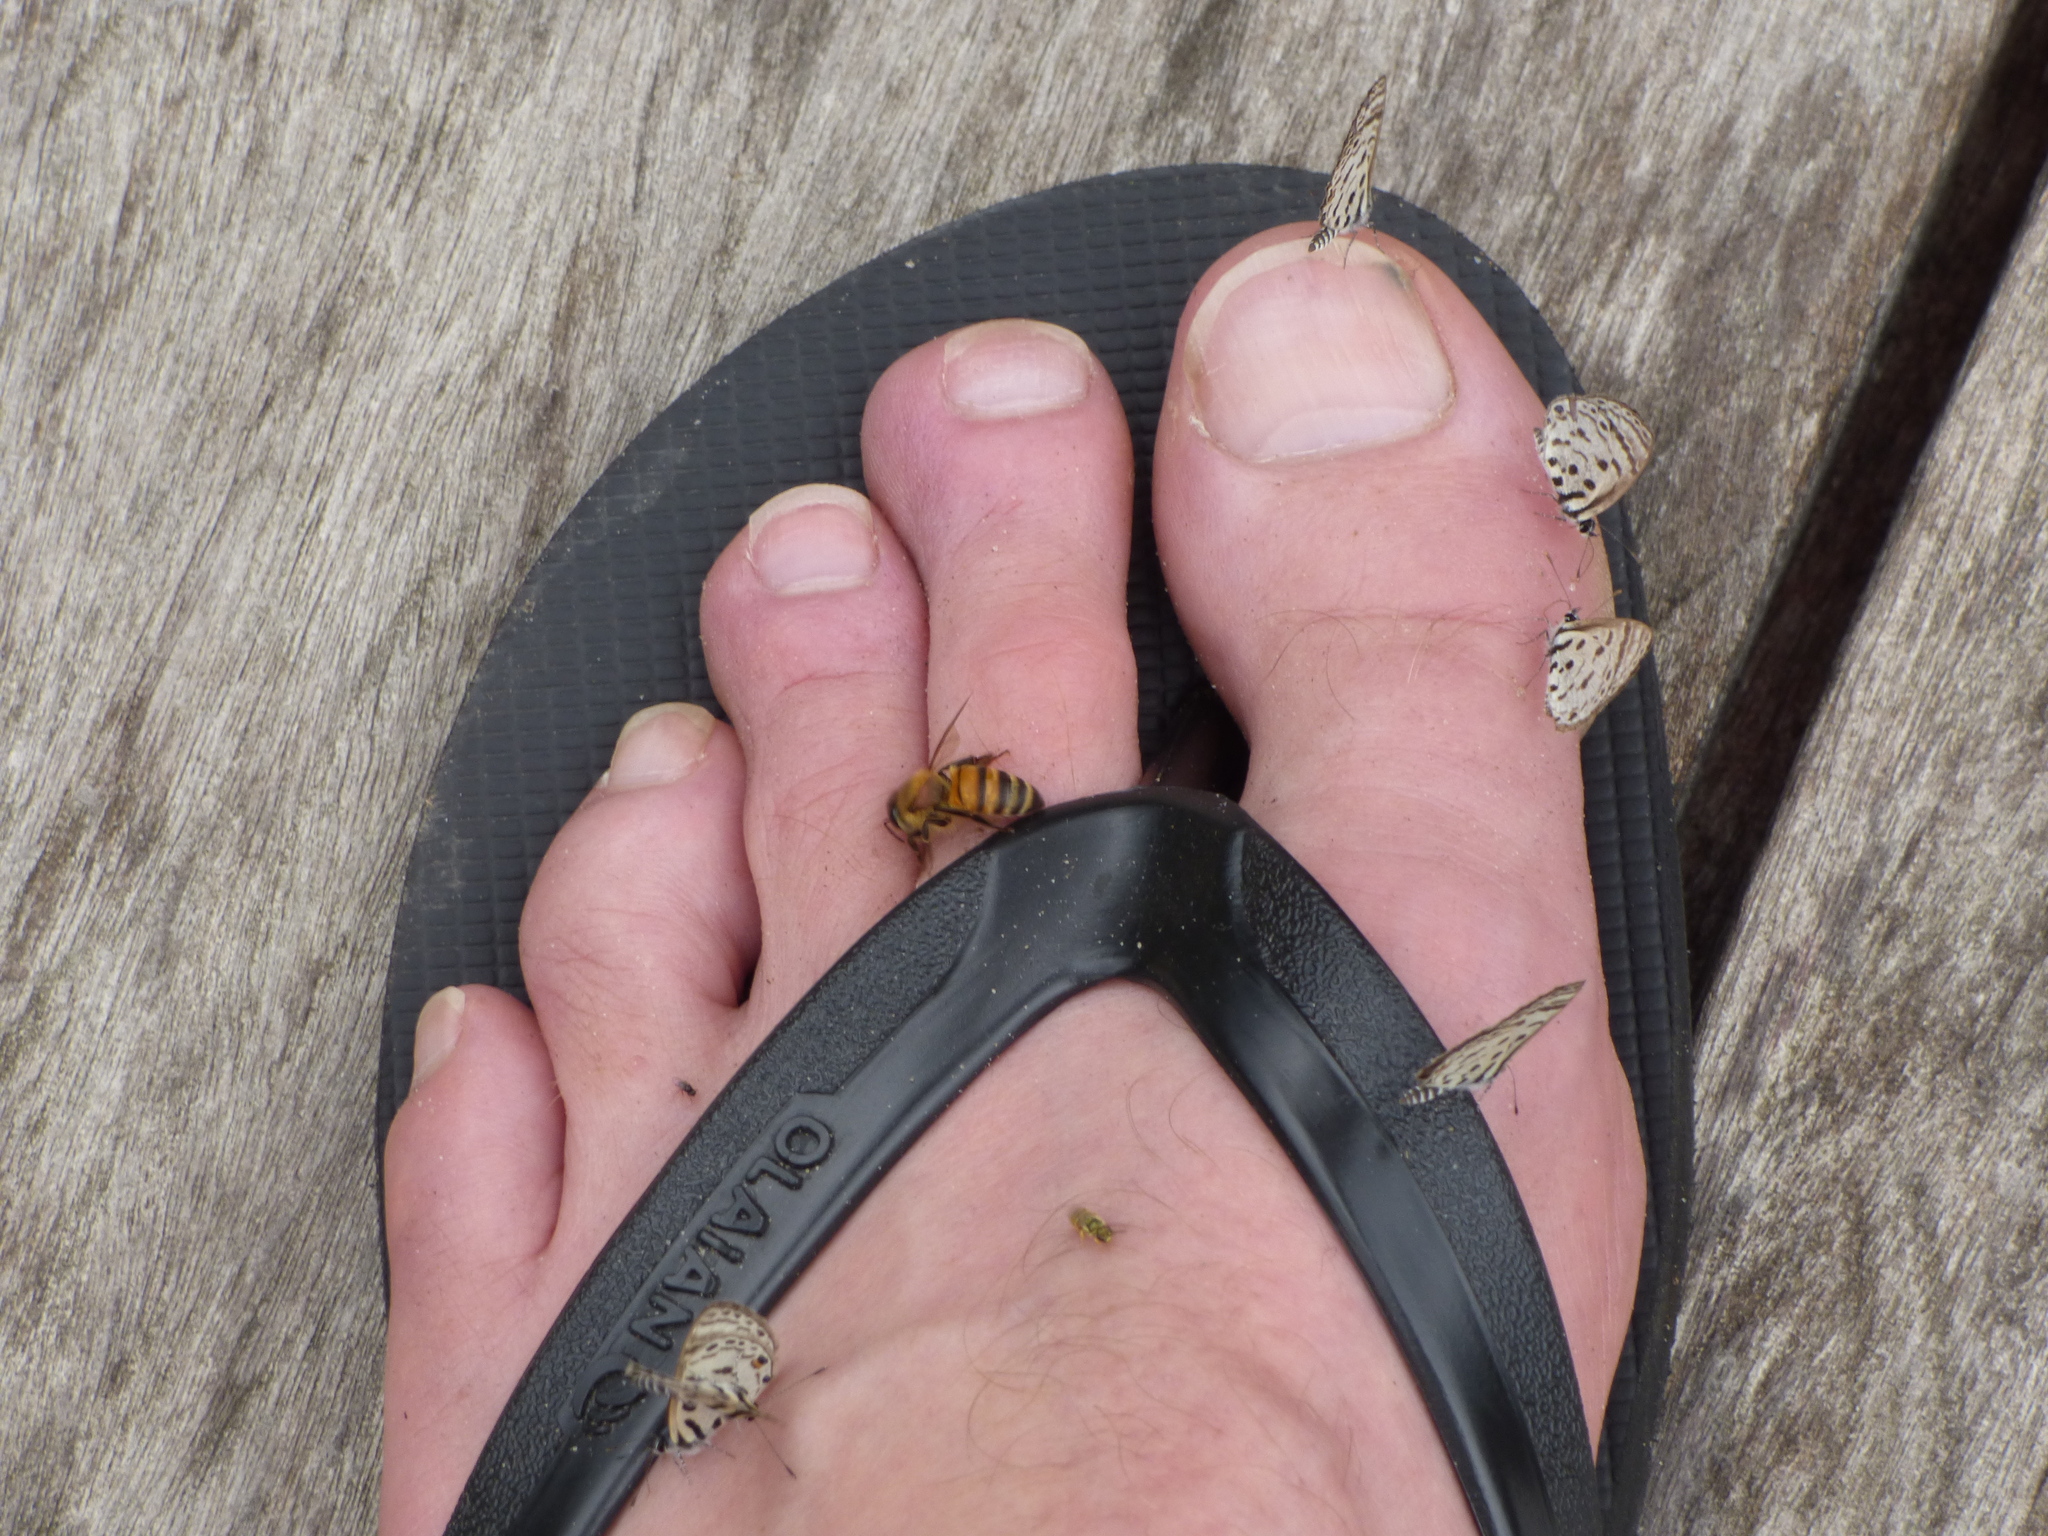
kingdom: Animalia
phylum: Arthropoda
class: Insecta
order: Hymenoptera
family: Apidae
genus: Apis
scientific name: Apis mellifera
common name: Honey bee
